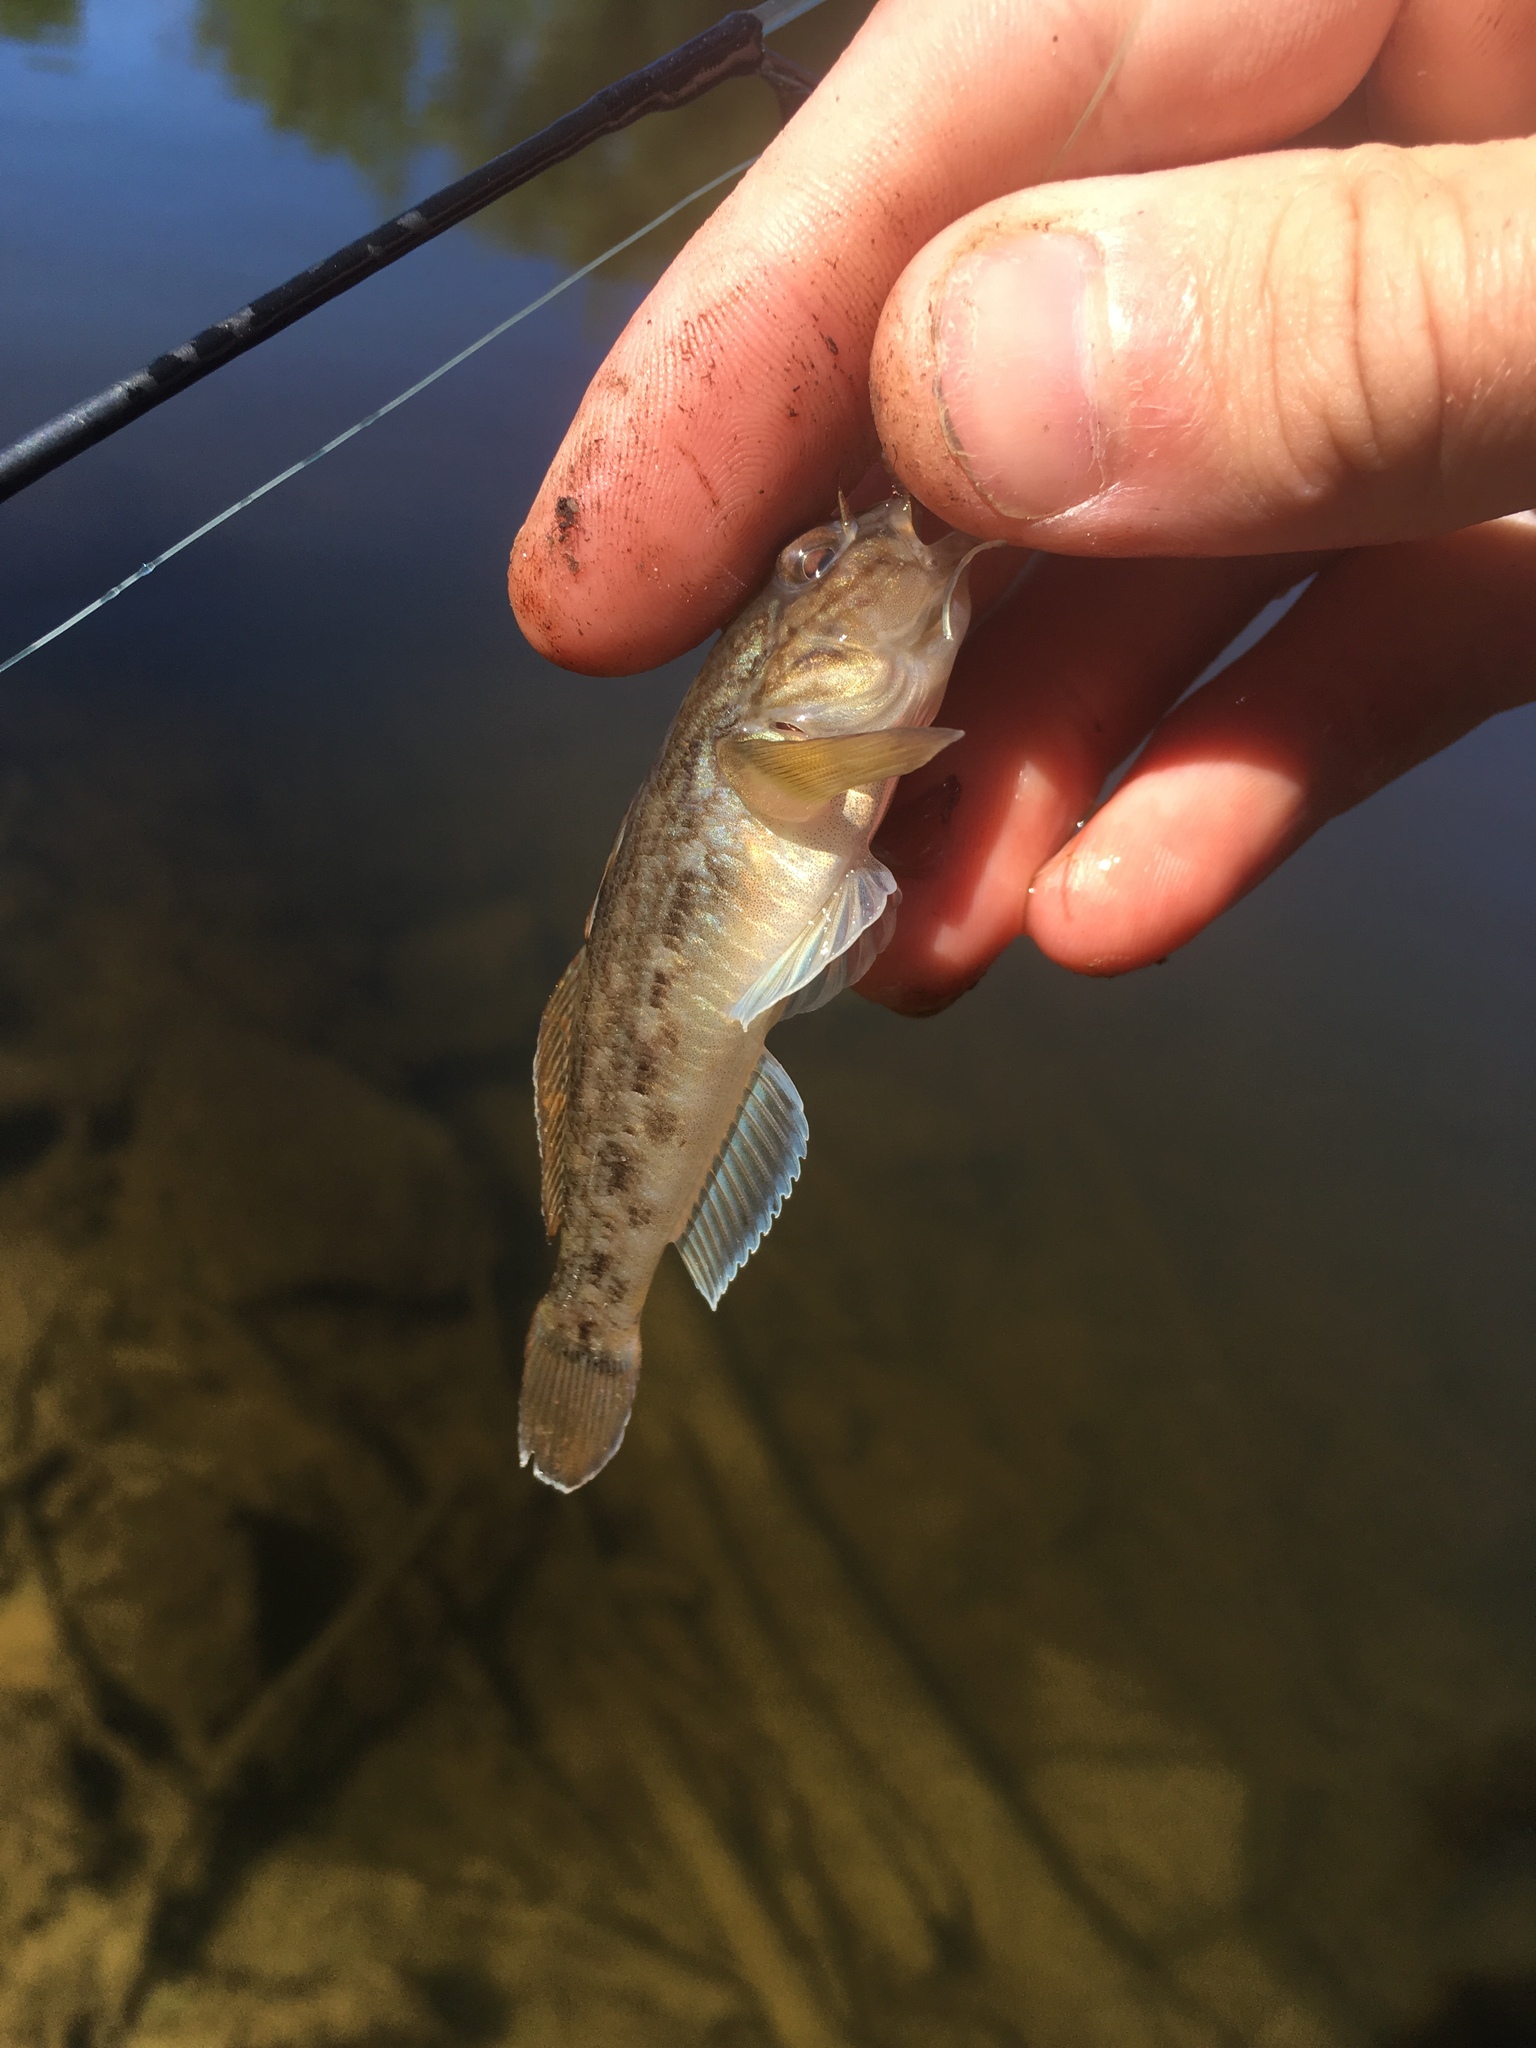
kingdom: Animalia
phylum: Chordata
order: Perciformes
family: Gobiidae
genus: Neogobius
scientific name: Neogobius melanostomus
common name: Round goby
